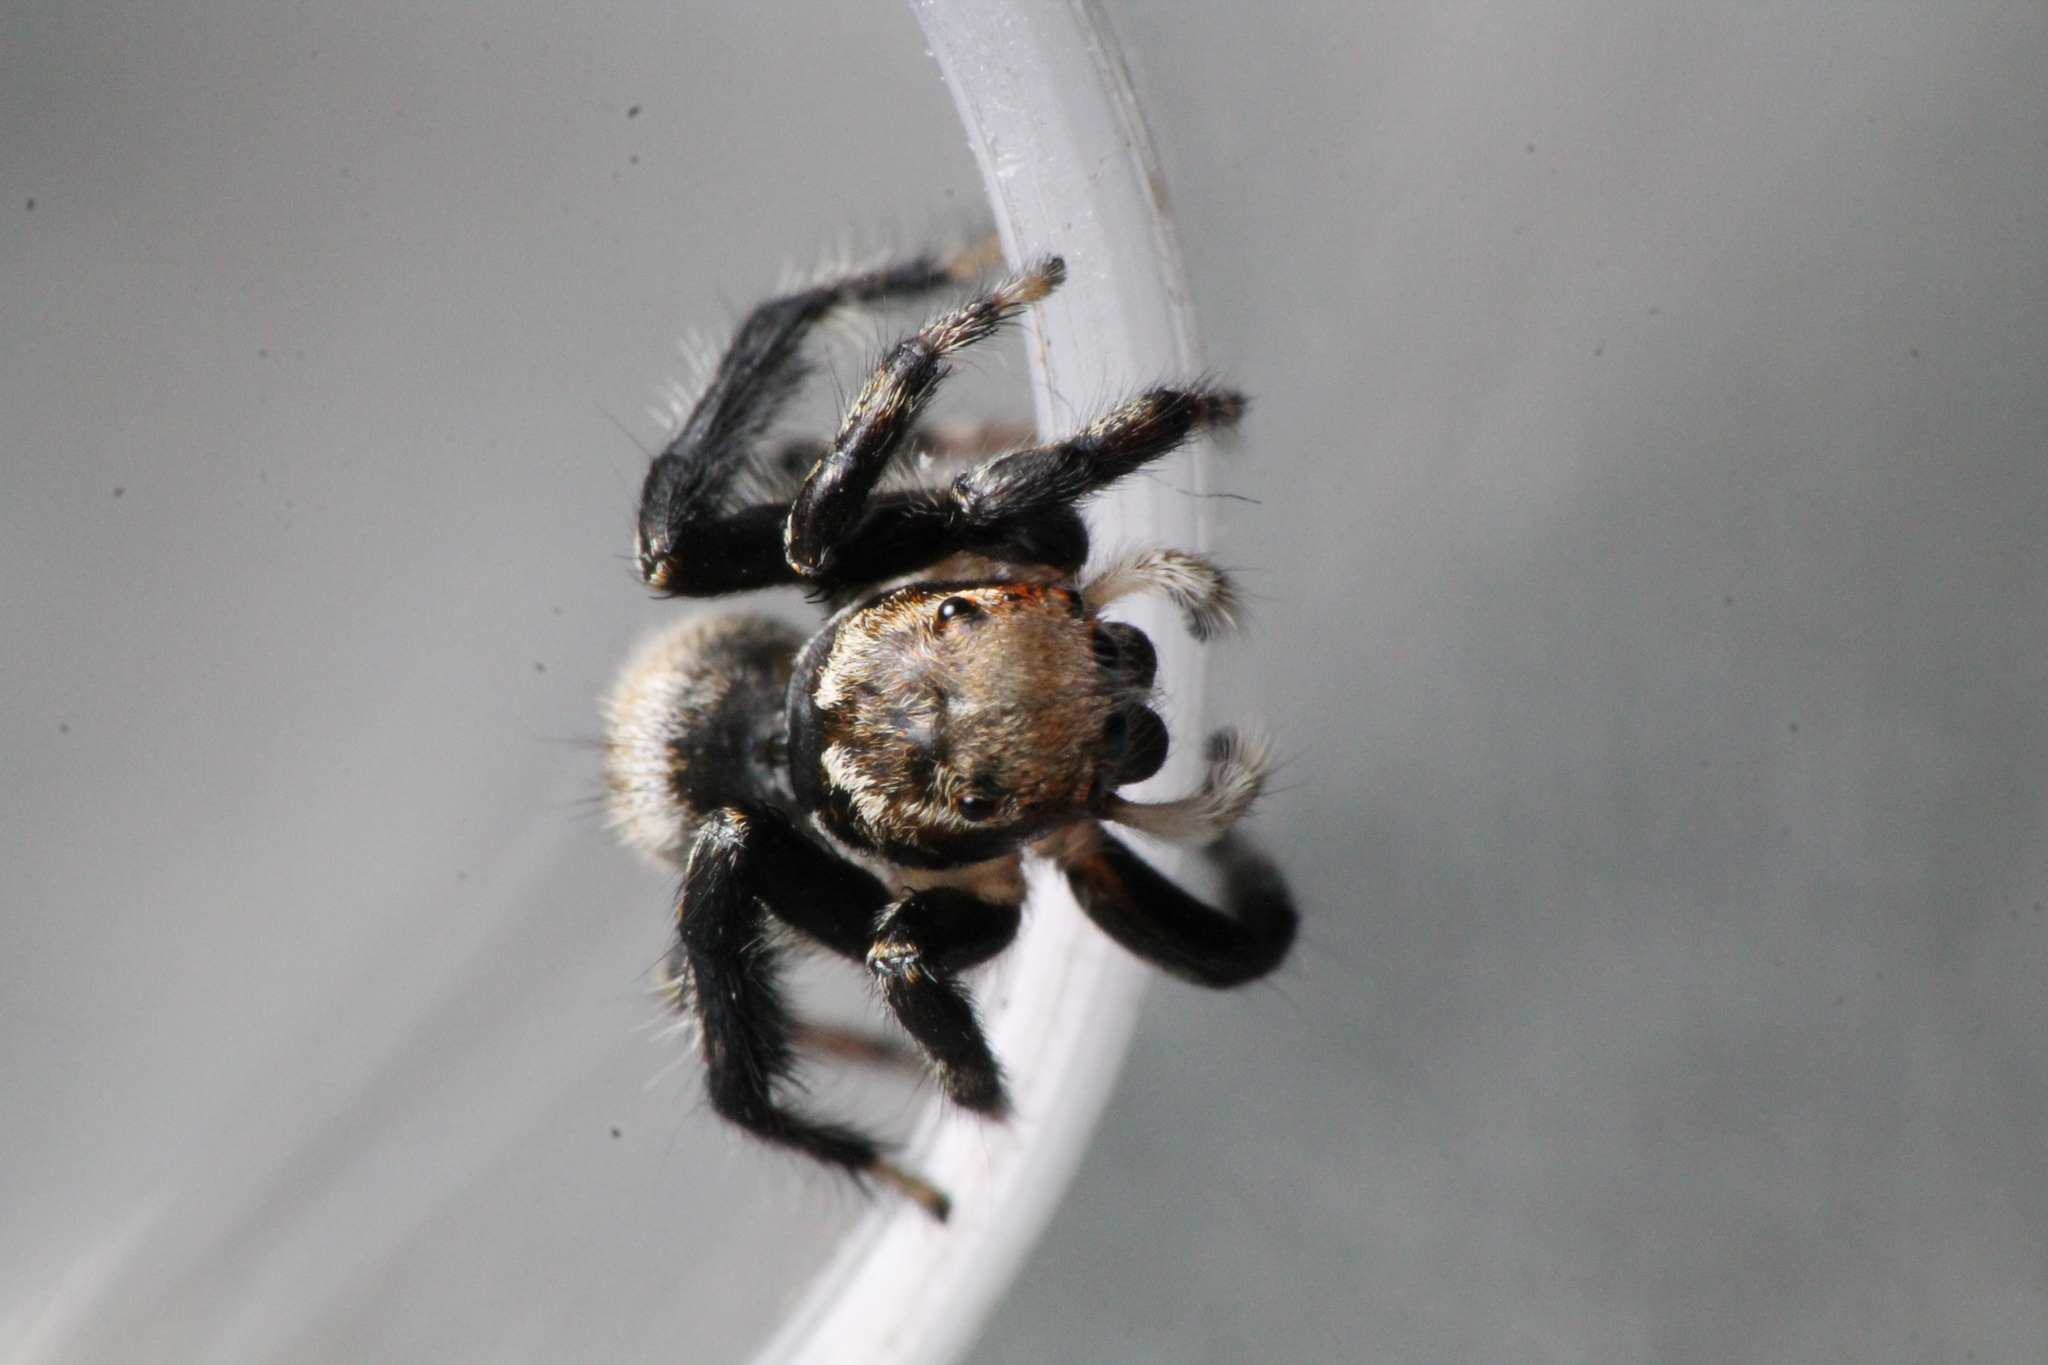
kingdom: Animalia
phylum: Arthropoda
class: Arachnida
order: Araneae
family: Salticidae
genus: Maratus
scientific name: Maratus griseus
